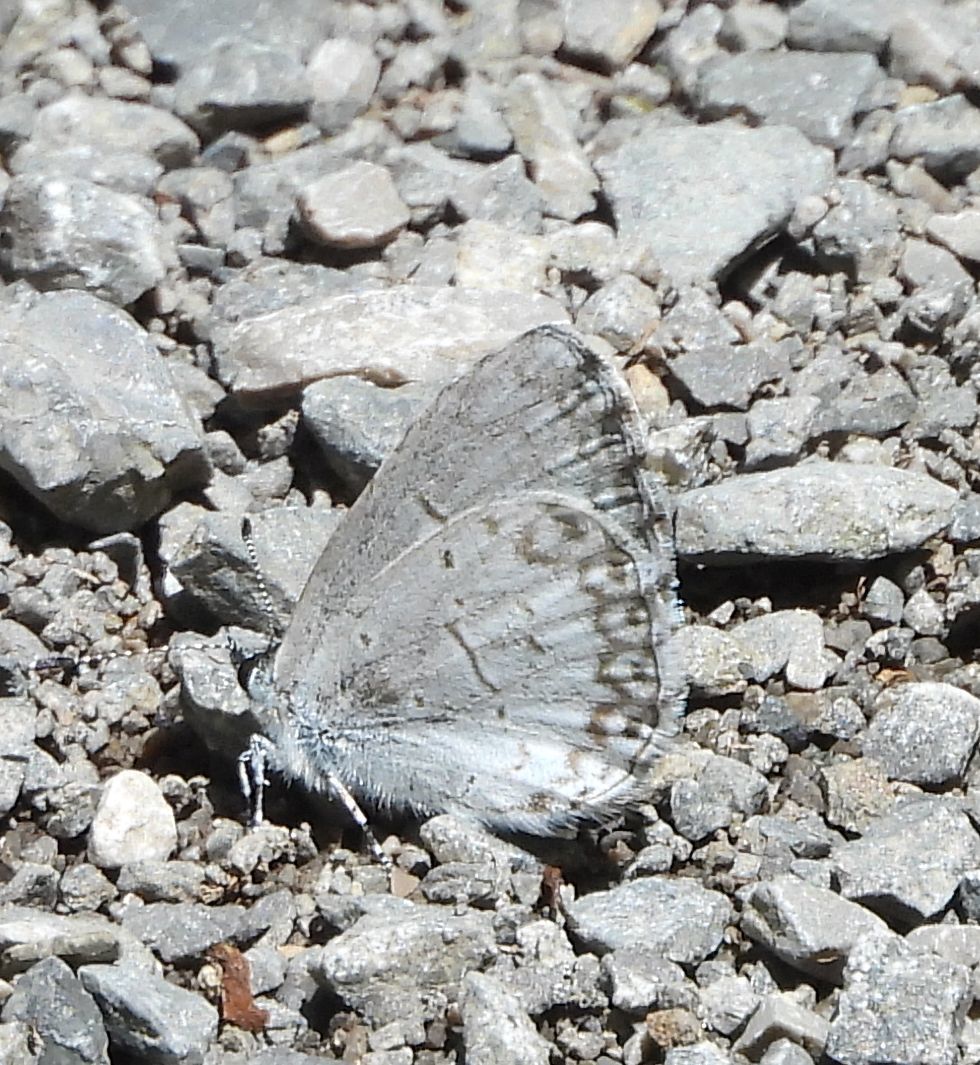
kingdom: Animalia
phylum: Arthropoda
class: Insecta
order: Lepidoptera
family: Lycaenidae
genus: Celastrina
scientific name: Celastrina lucia
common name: Lucia azure
